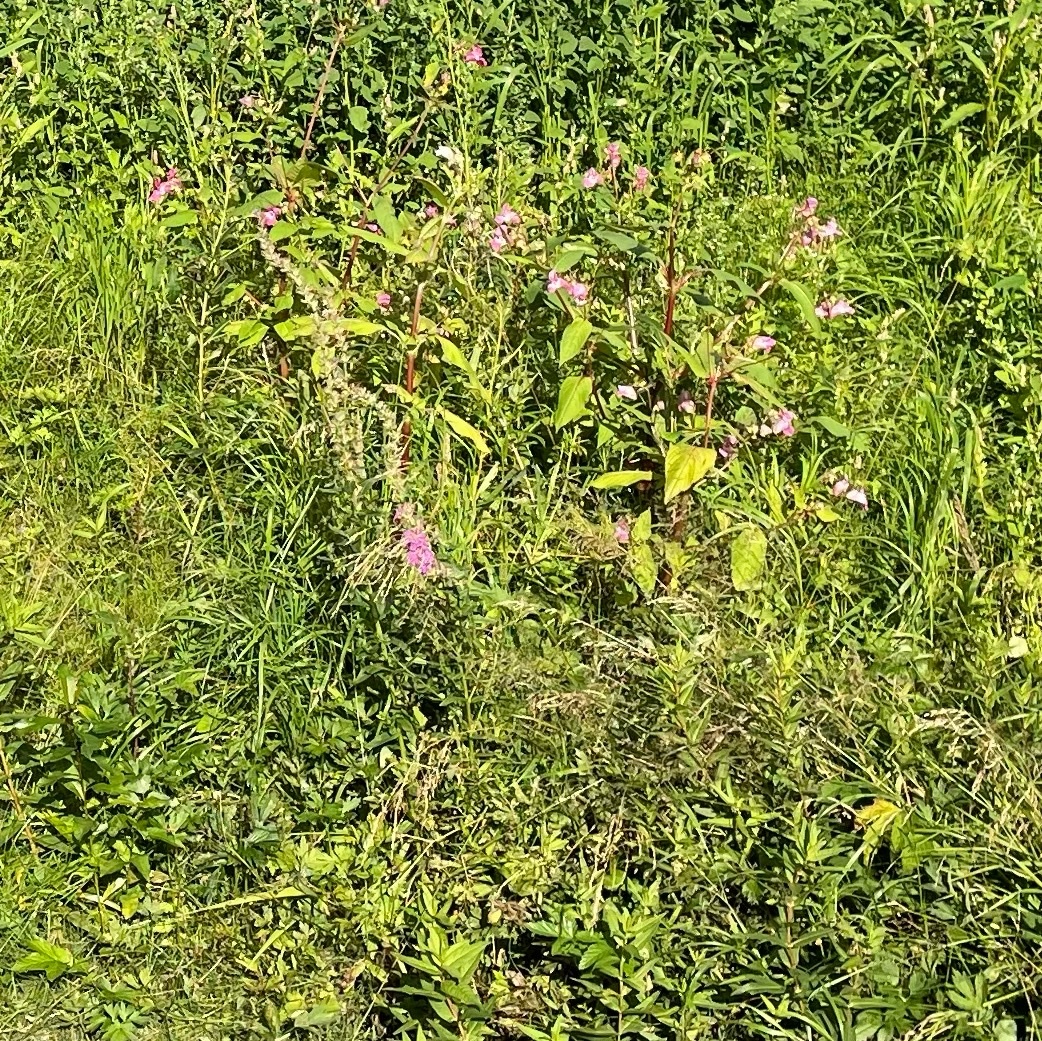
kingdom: Plantae
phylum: Tracheophyta
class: Magnoliopsida
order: Ericales
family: Balsaminaceae
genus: Impatiens
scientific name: Impatiens glandulifera
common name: Himalayan balsam
